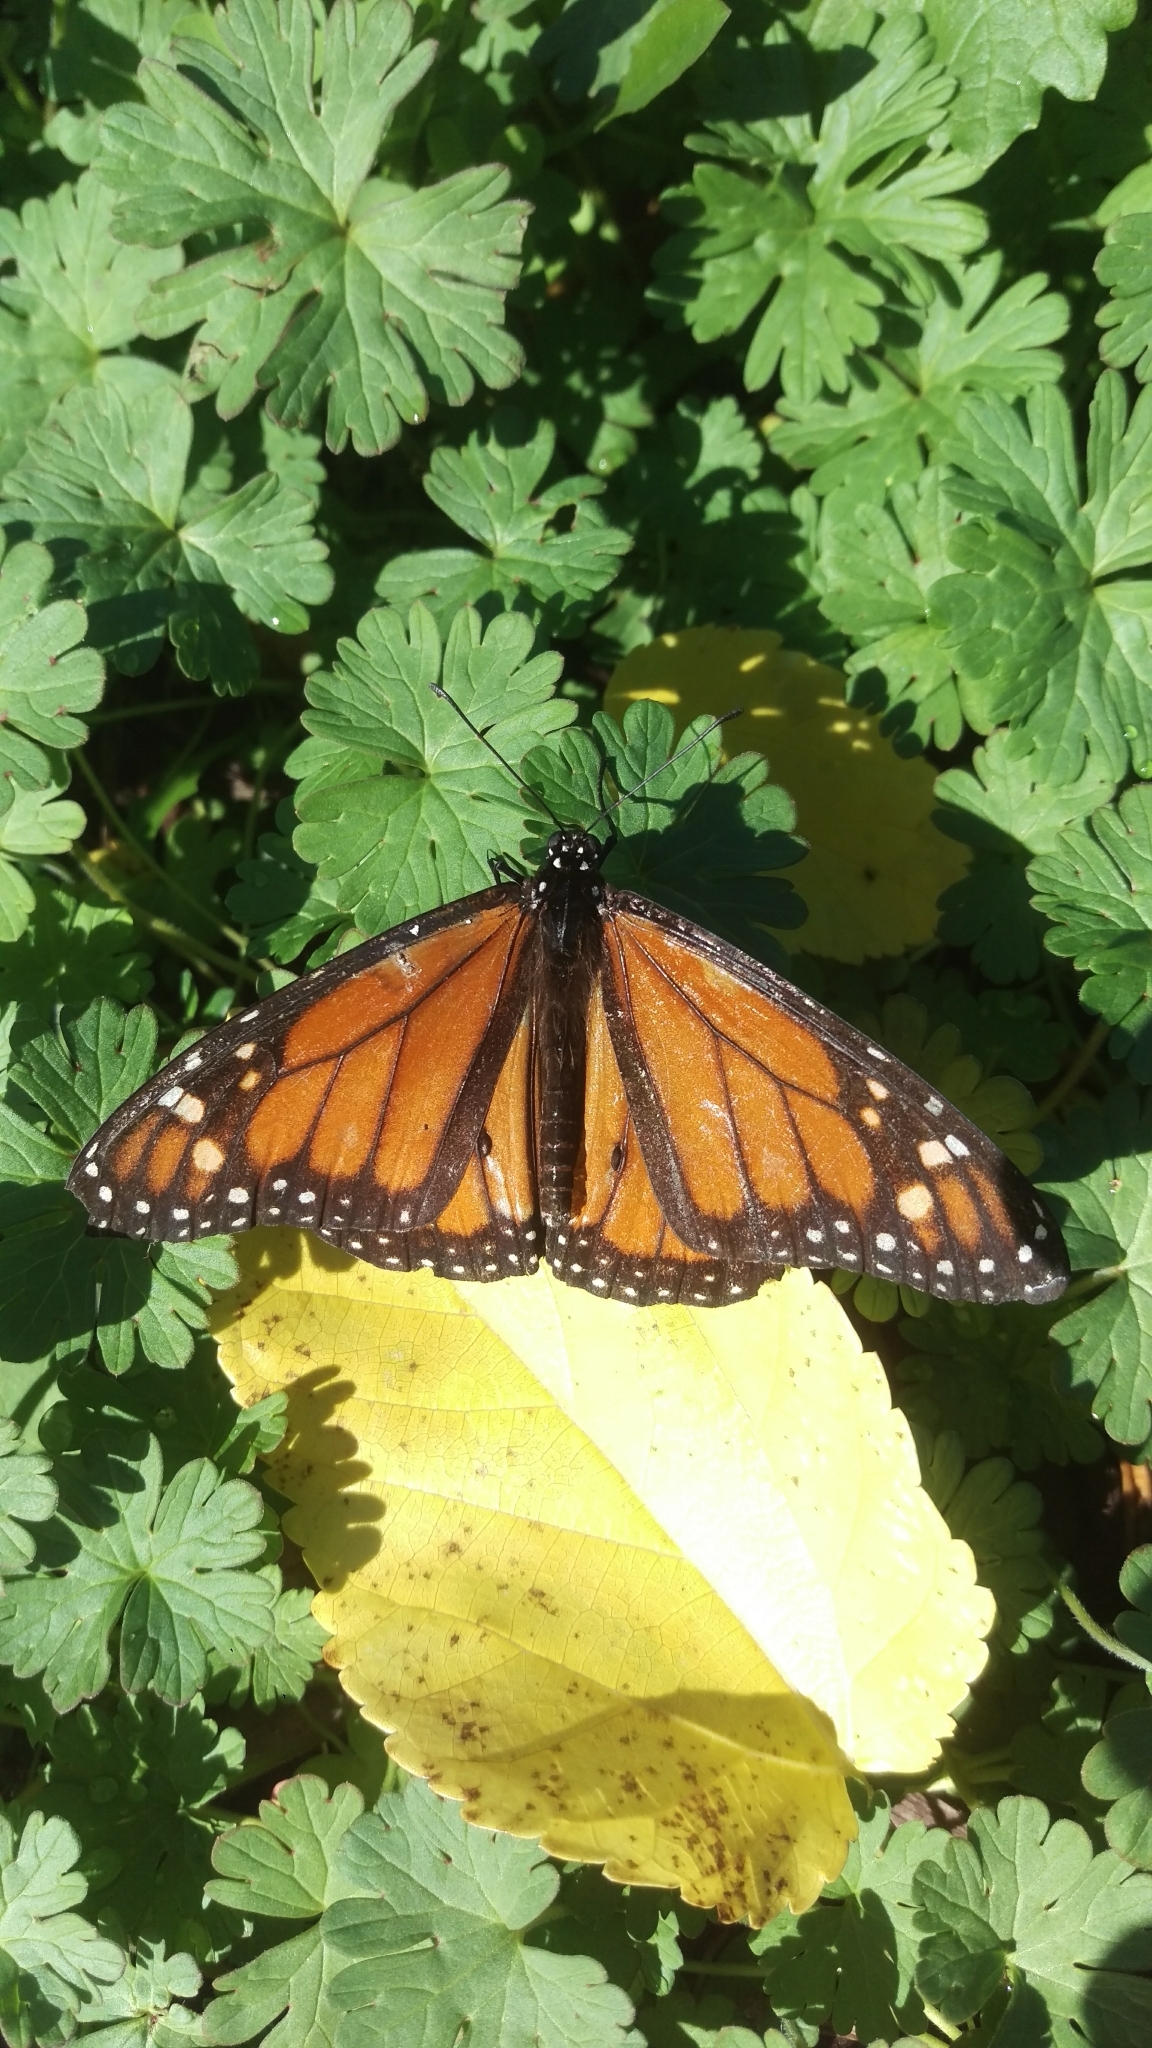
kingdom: Animalia
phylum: Arthropoda
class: Insecta
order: Lepidoptera
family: Nymphalidae
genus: Danaus
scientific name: Danaus plexippus
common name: Monarch
